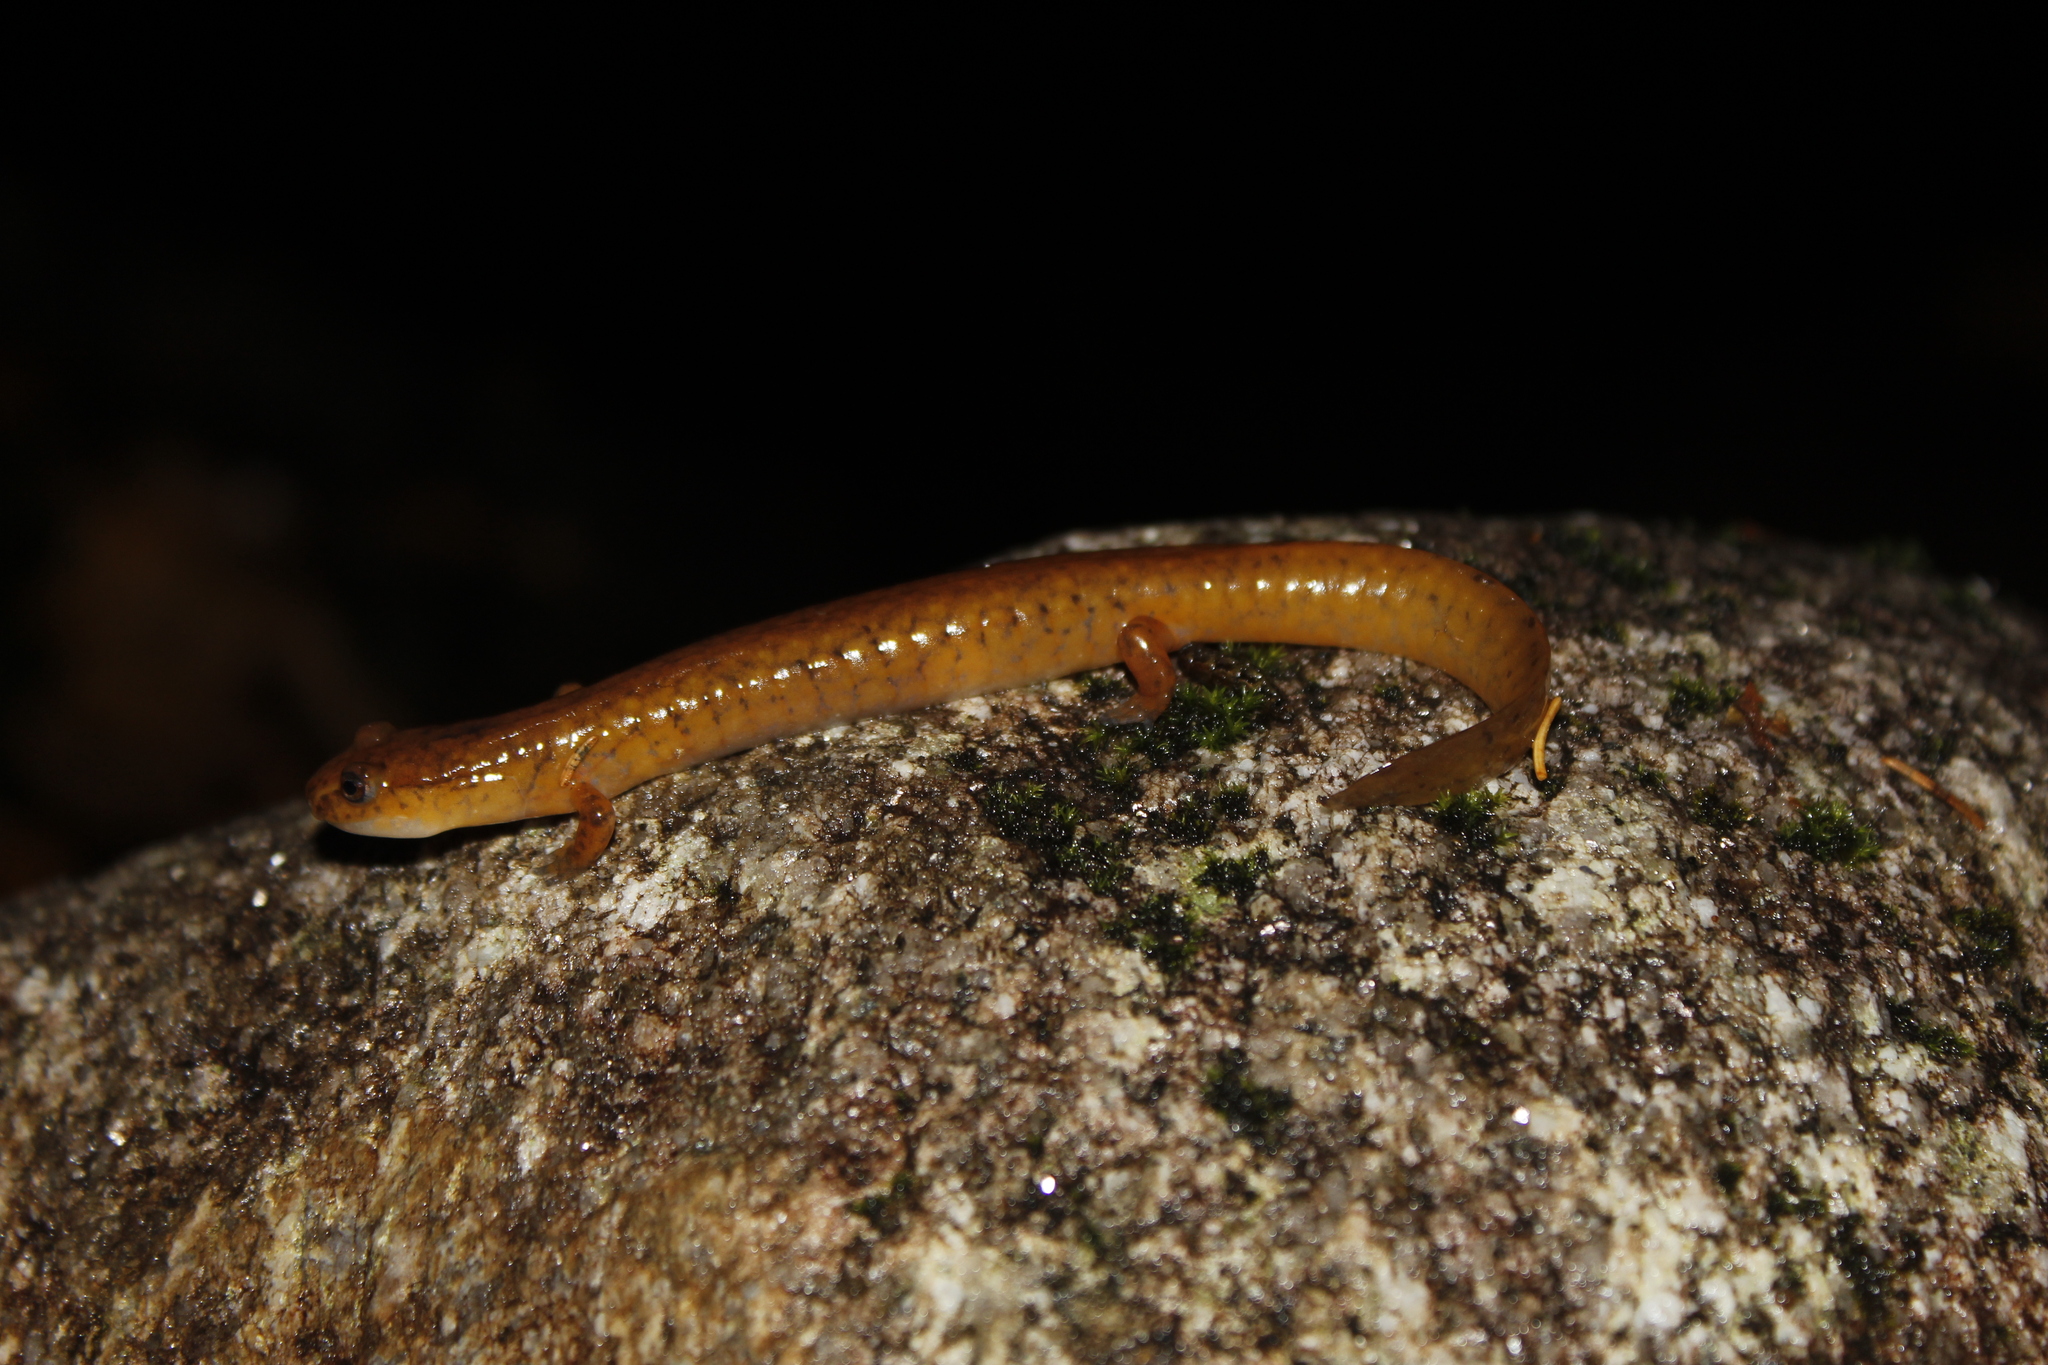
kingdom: Animalia
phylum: Chordata
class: Amphibia
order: Caudata
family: Plethodontidae
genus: Gyrinophilus
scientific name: Gyrinophilus porphyriticus
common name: Spring salamander
